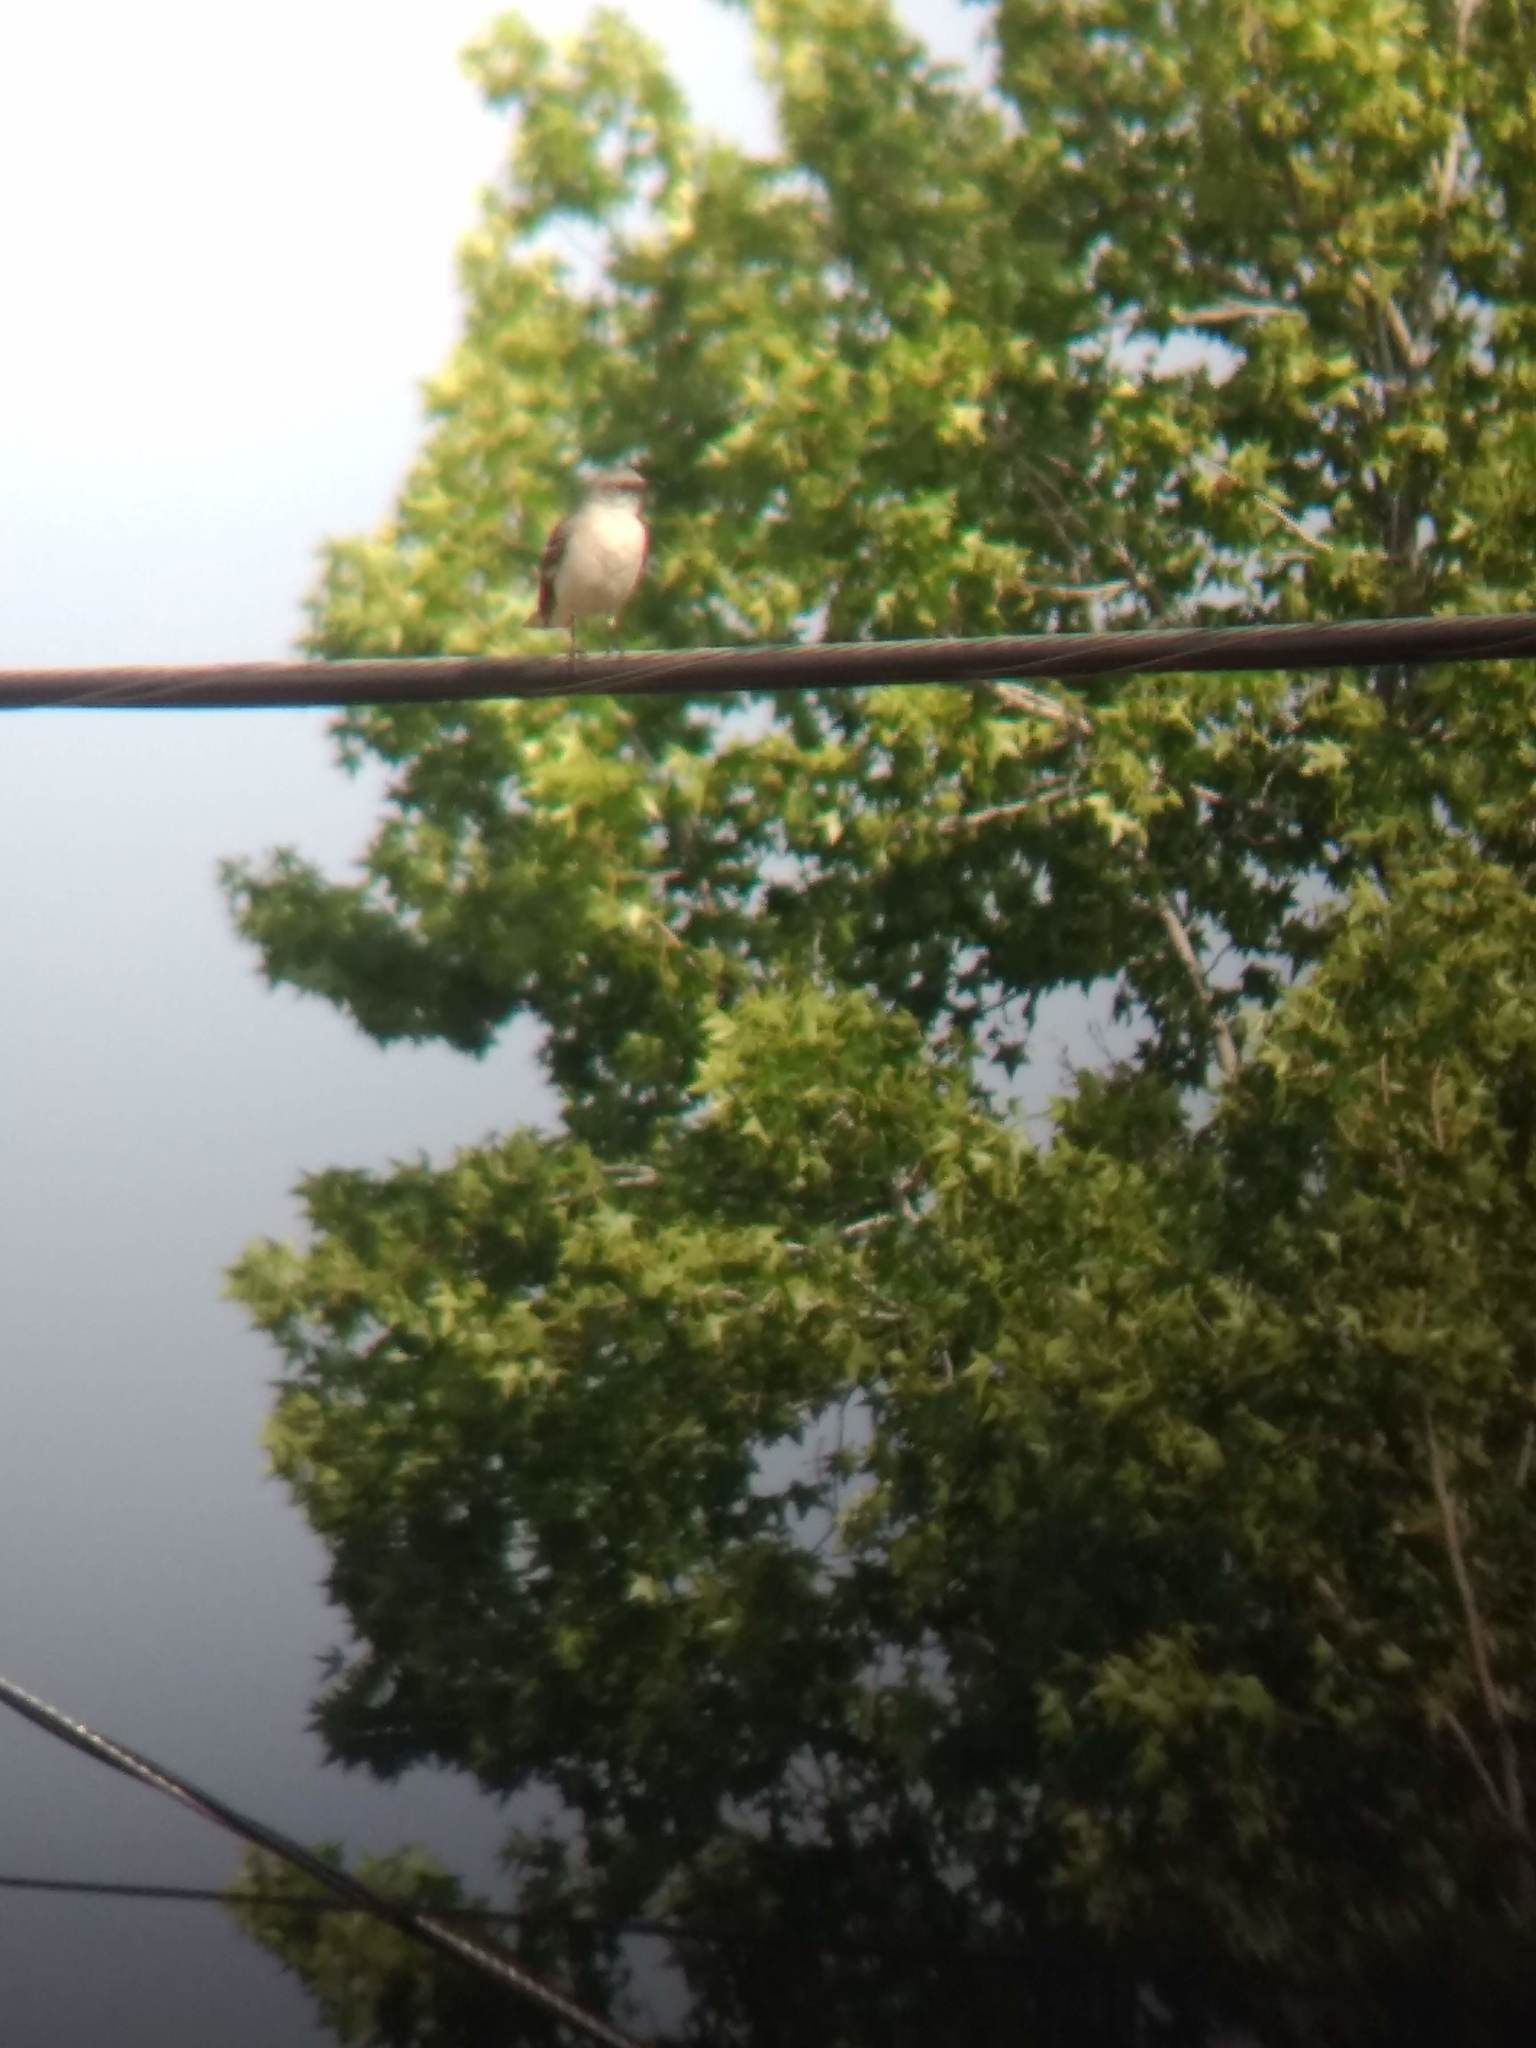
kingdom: Animalia
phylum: Chordata
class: Aves
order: Passeriformes
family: Mimidae
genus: Mimus
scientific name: Mimus polyglottos
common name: Northern mockingbird
